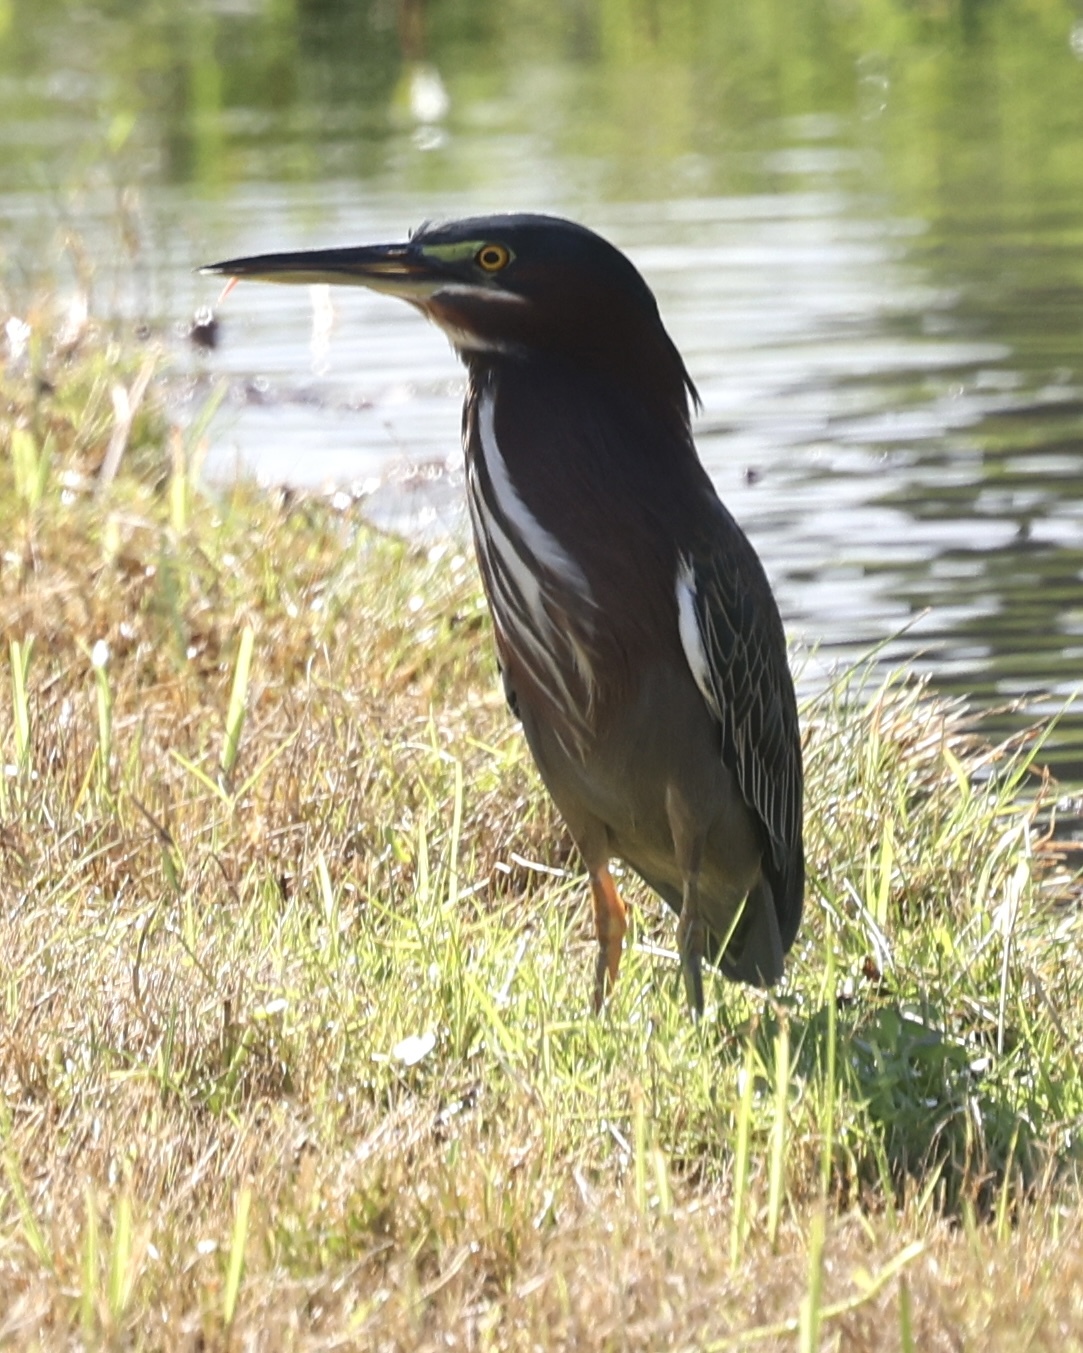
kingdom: Animalia
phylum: Chordata
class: Aves
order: Pelecaniformes
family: Ardeidae
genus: Butorides
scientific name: Butorides virescens
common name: Green heron
